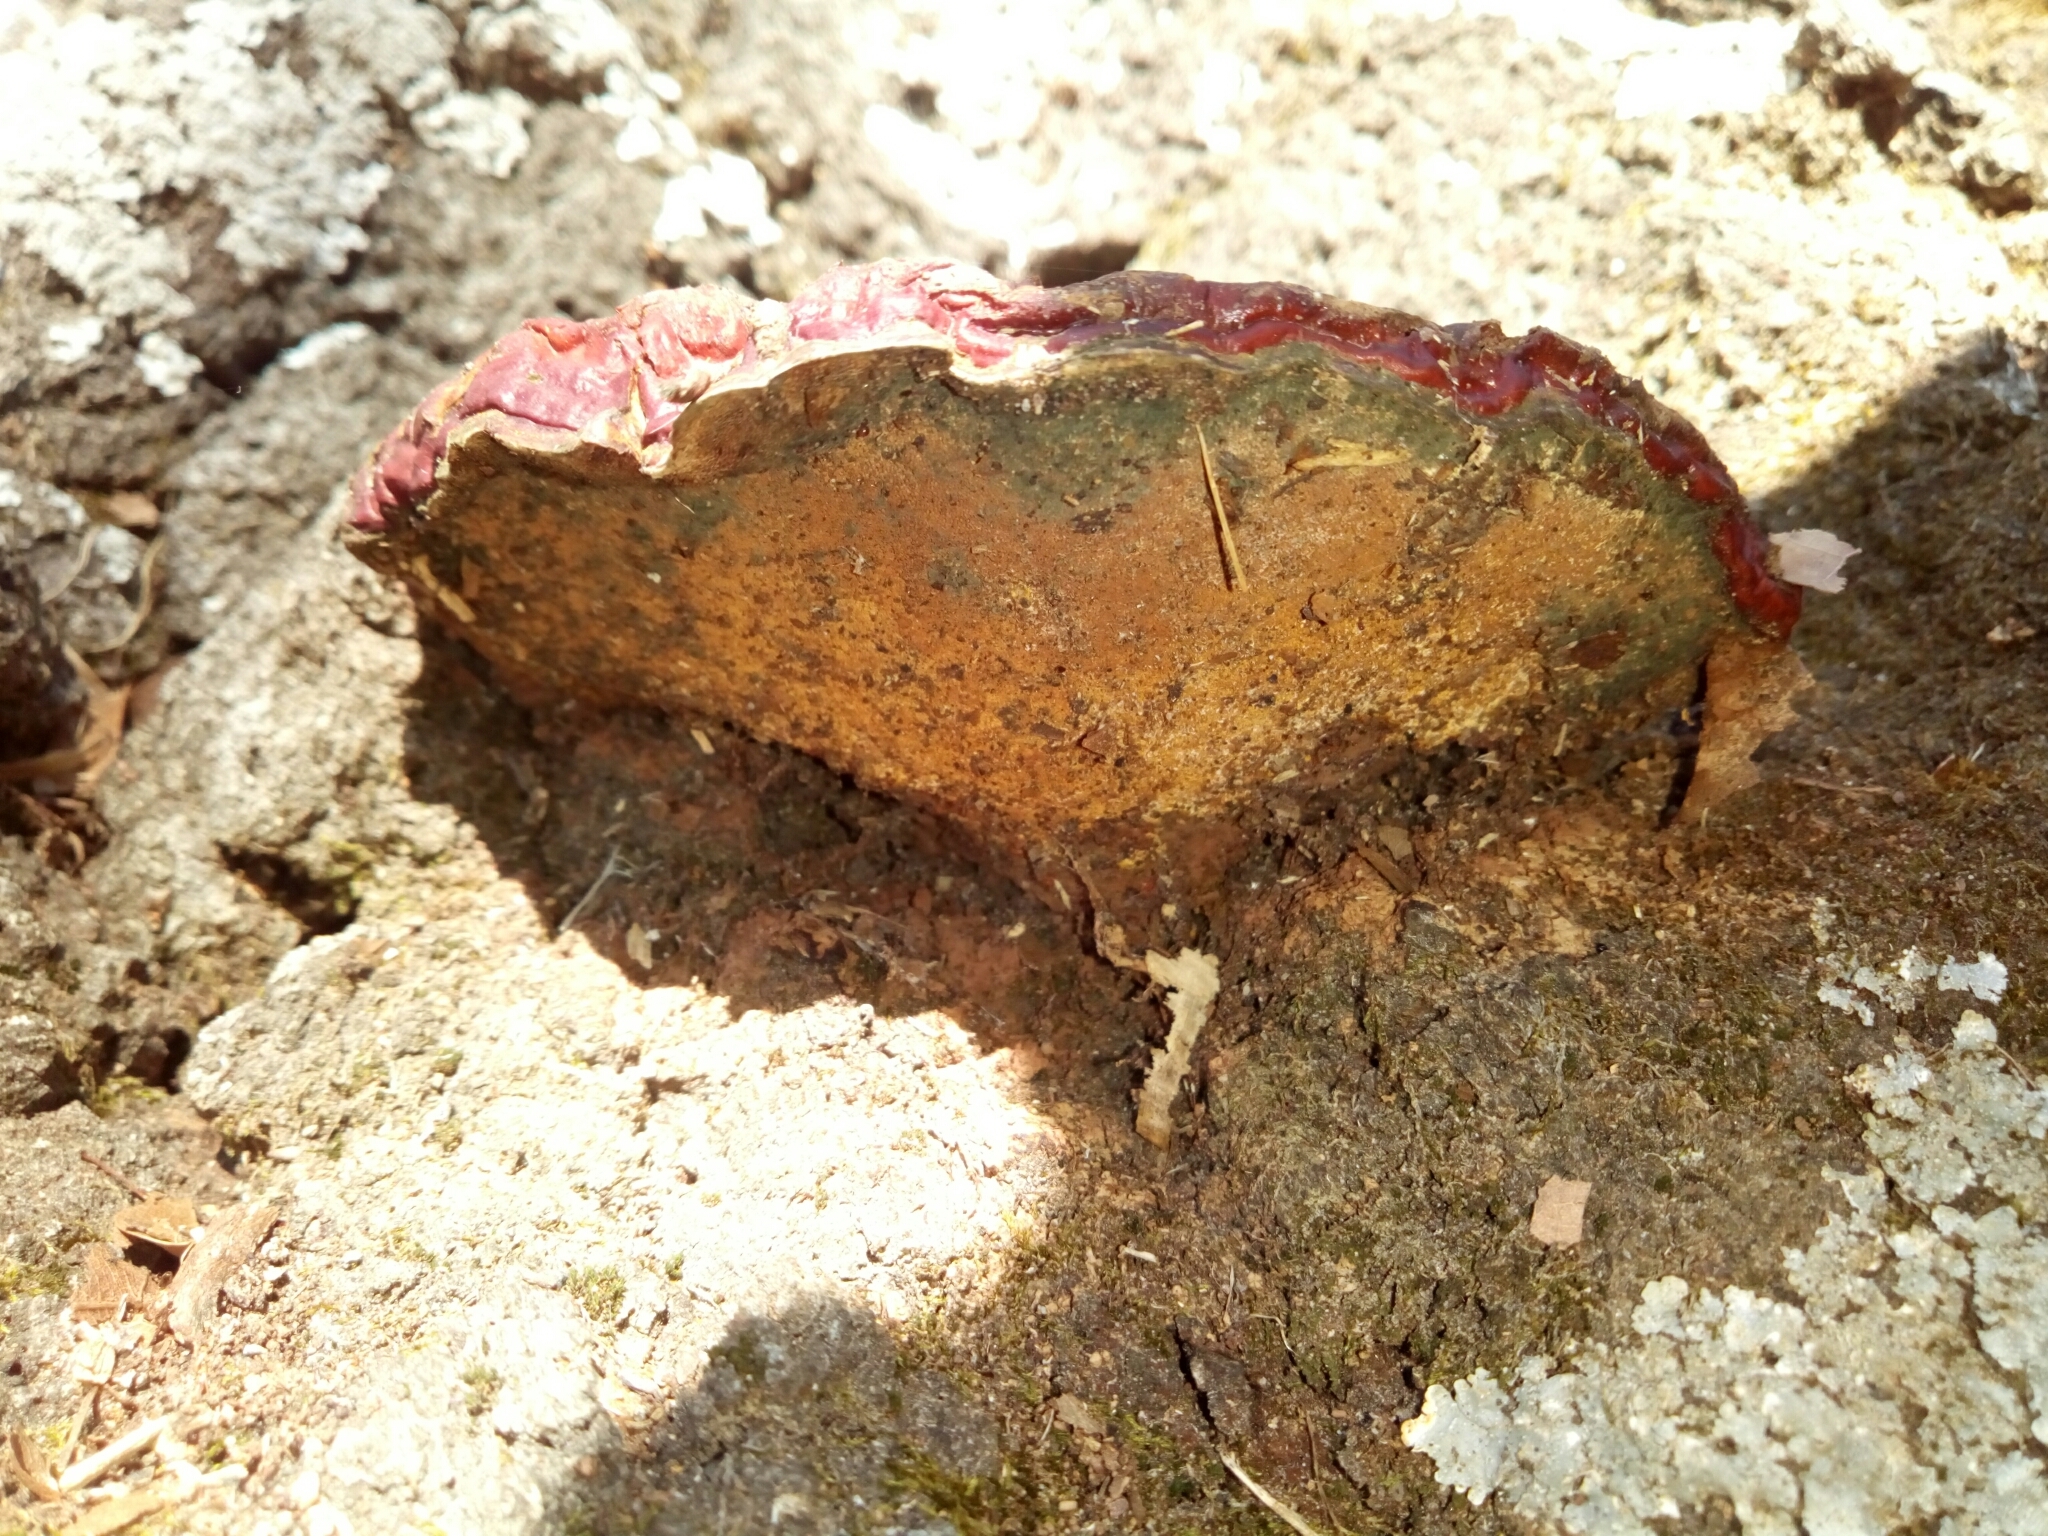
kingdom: Fungi
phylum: Basidiomycota
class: Agaricomycetes
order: Polyporales
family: Polyporaceae
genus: Ganoderma
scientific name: Ganoderma resinaceum
